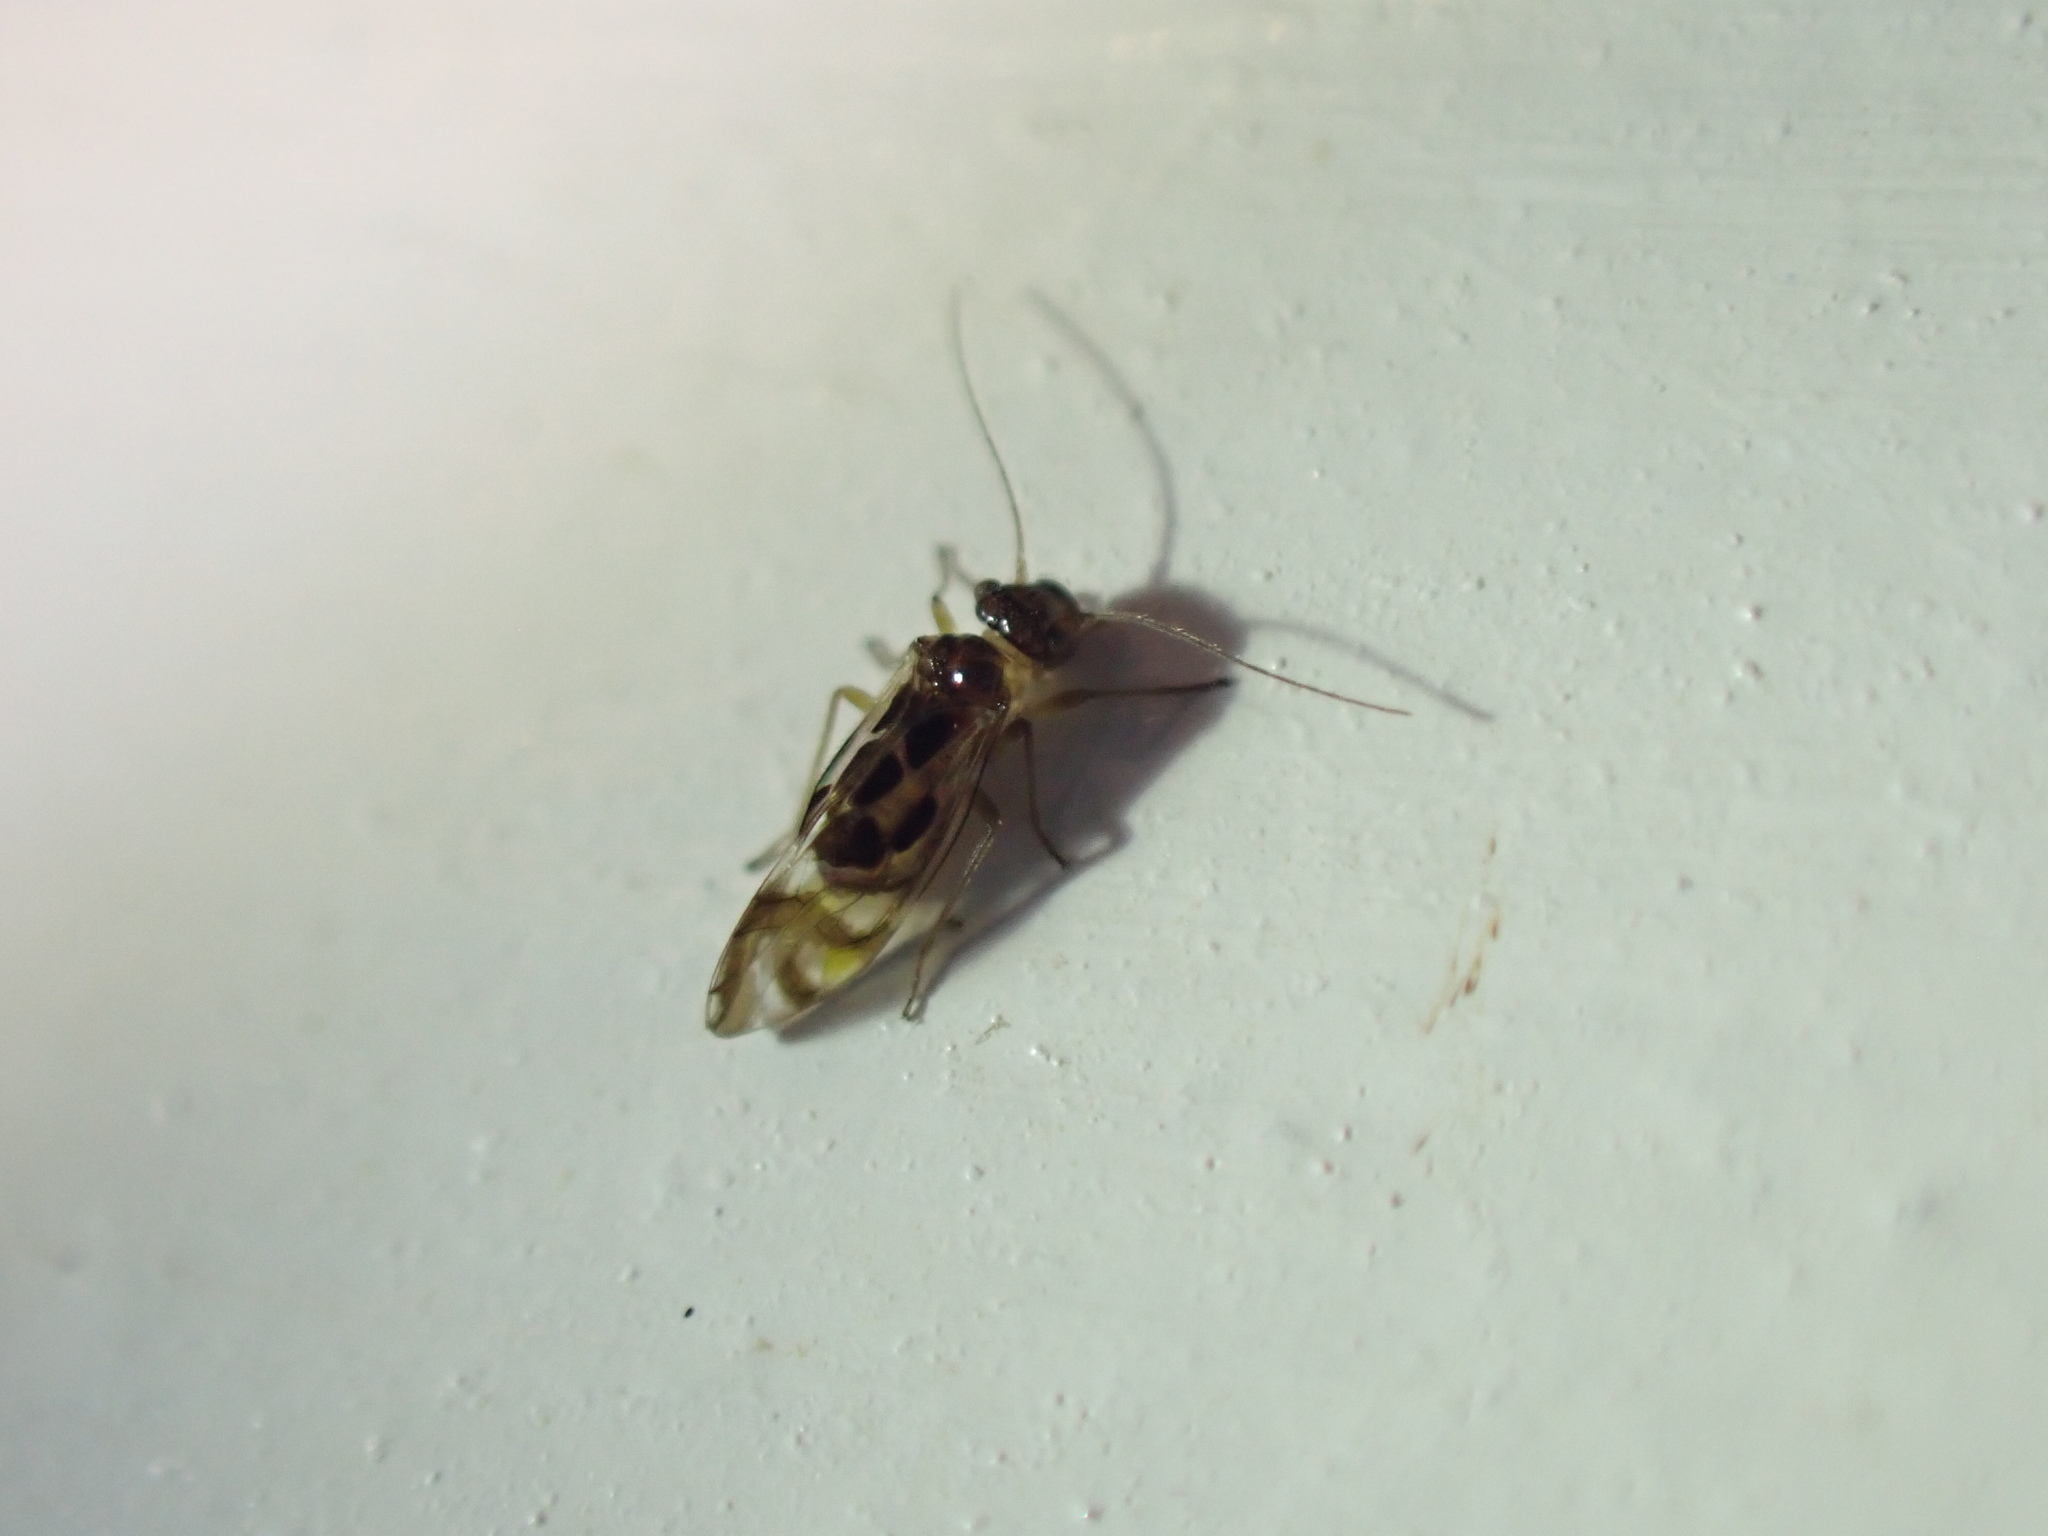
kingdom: Animalia
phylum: Arthropoda
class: Insecta
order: Psocodea
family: Stenopsocidae
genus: Graphopsocus
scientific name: Graphopsocus cruciatus
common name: Lizard bark louse
